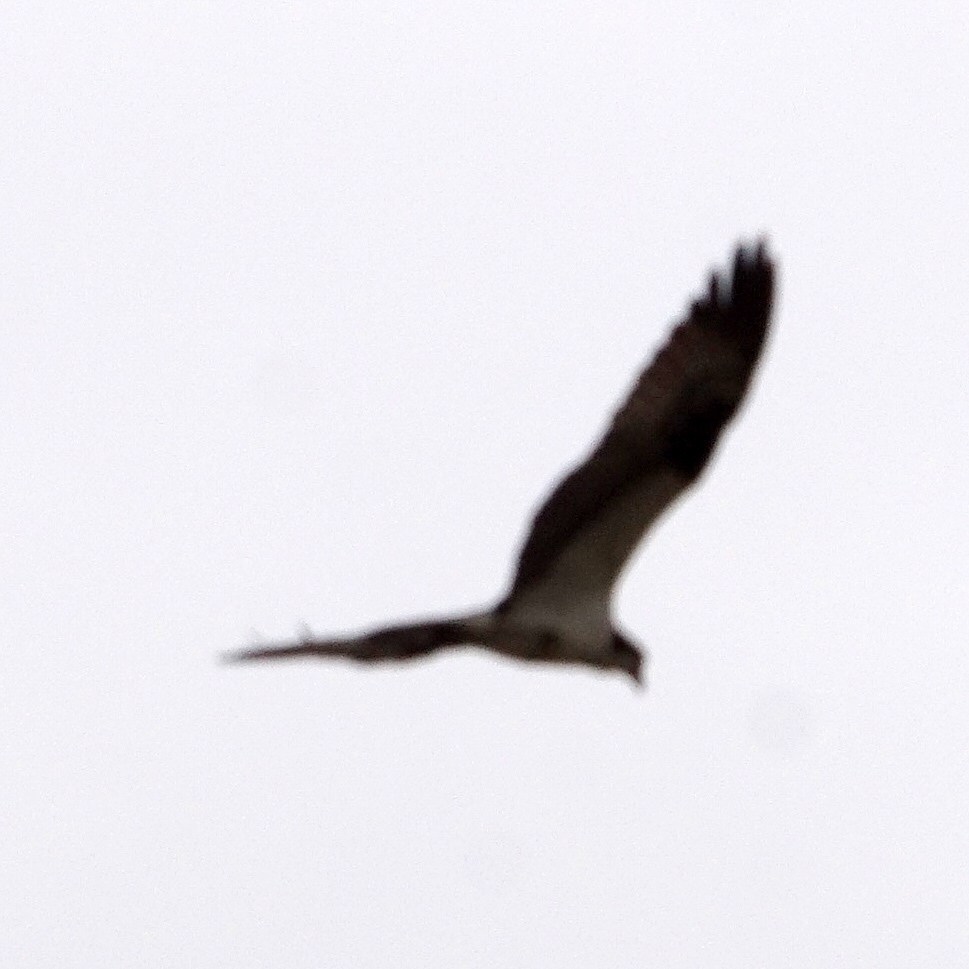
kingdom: Animalia
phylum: Chordata
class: Aves
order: Accipitriformes
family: Pandionidae
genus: Pandion
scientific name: Pandion haliaetus
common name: Osprey
